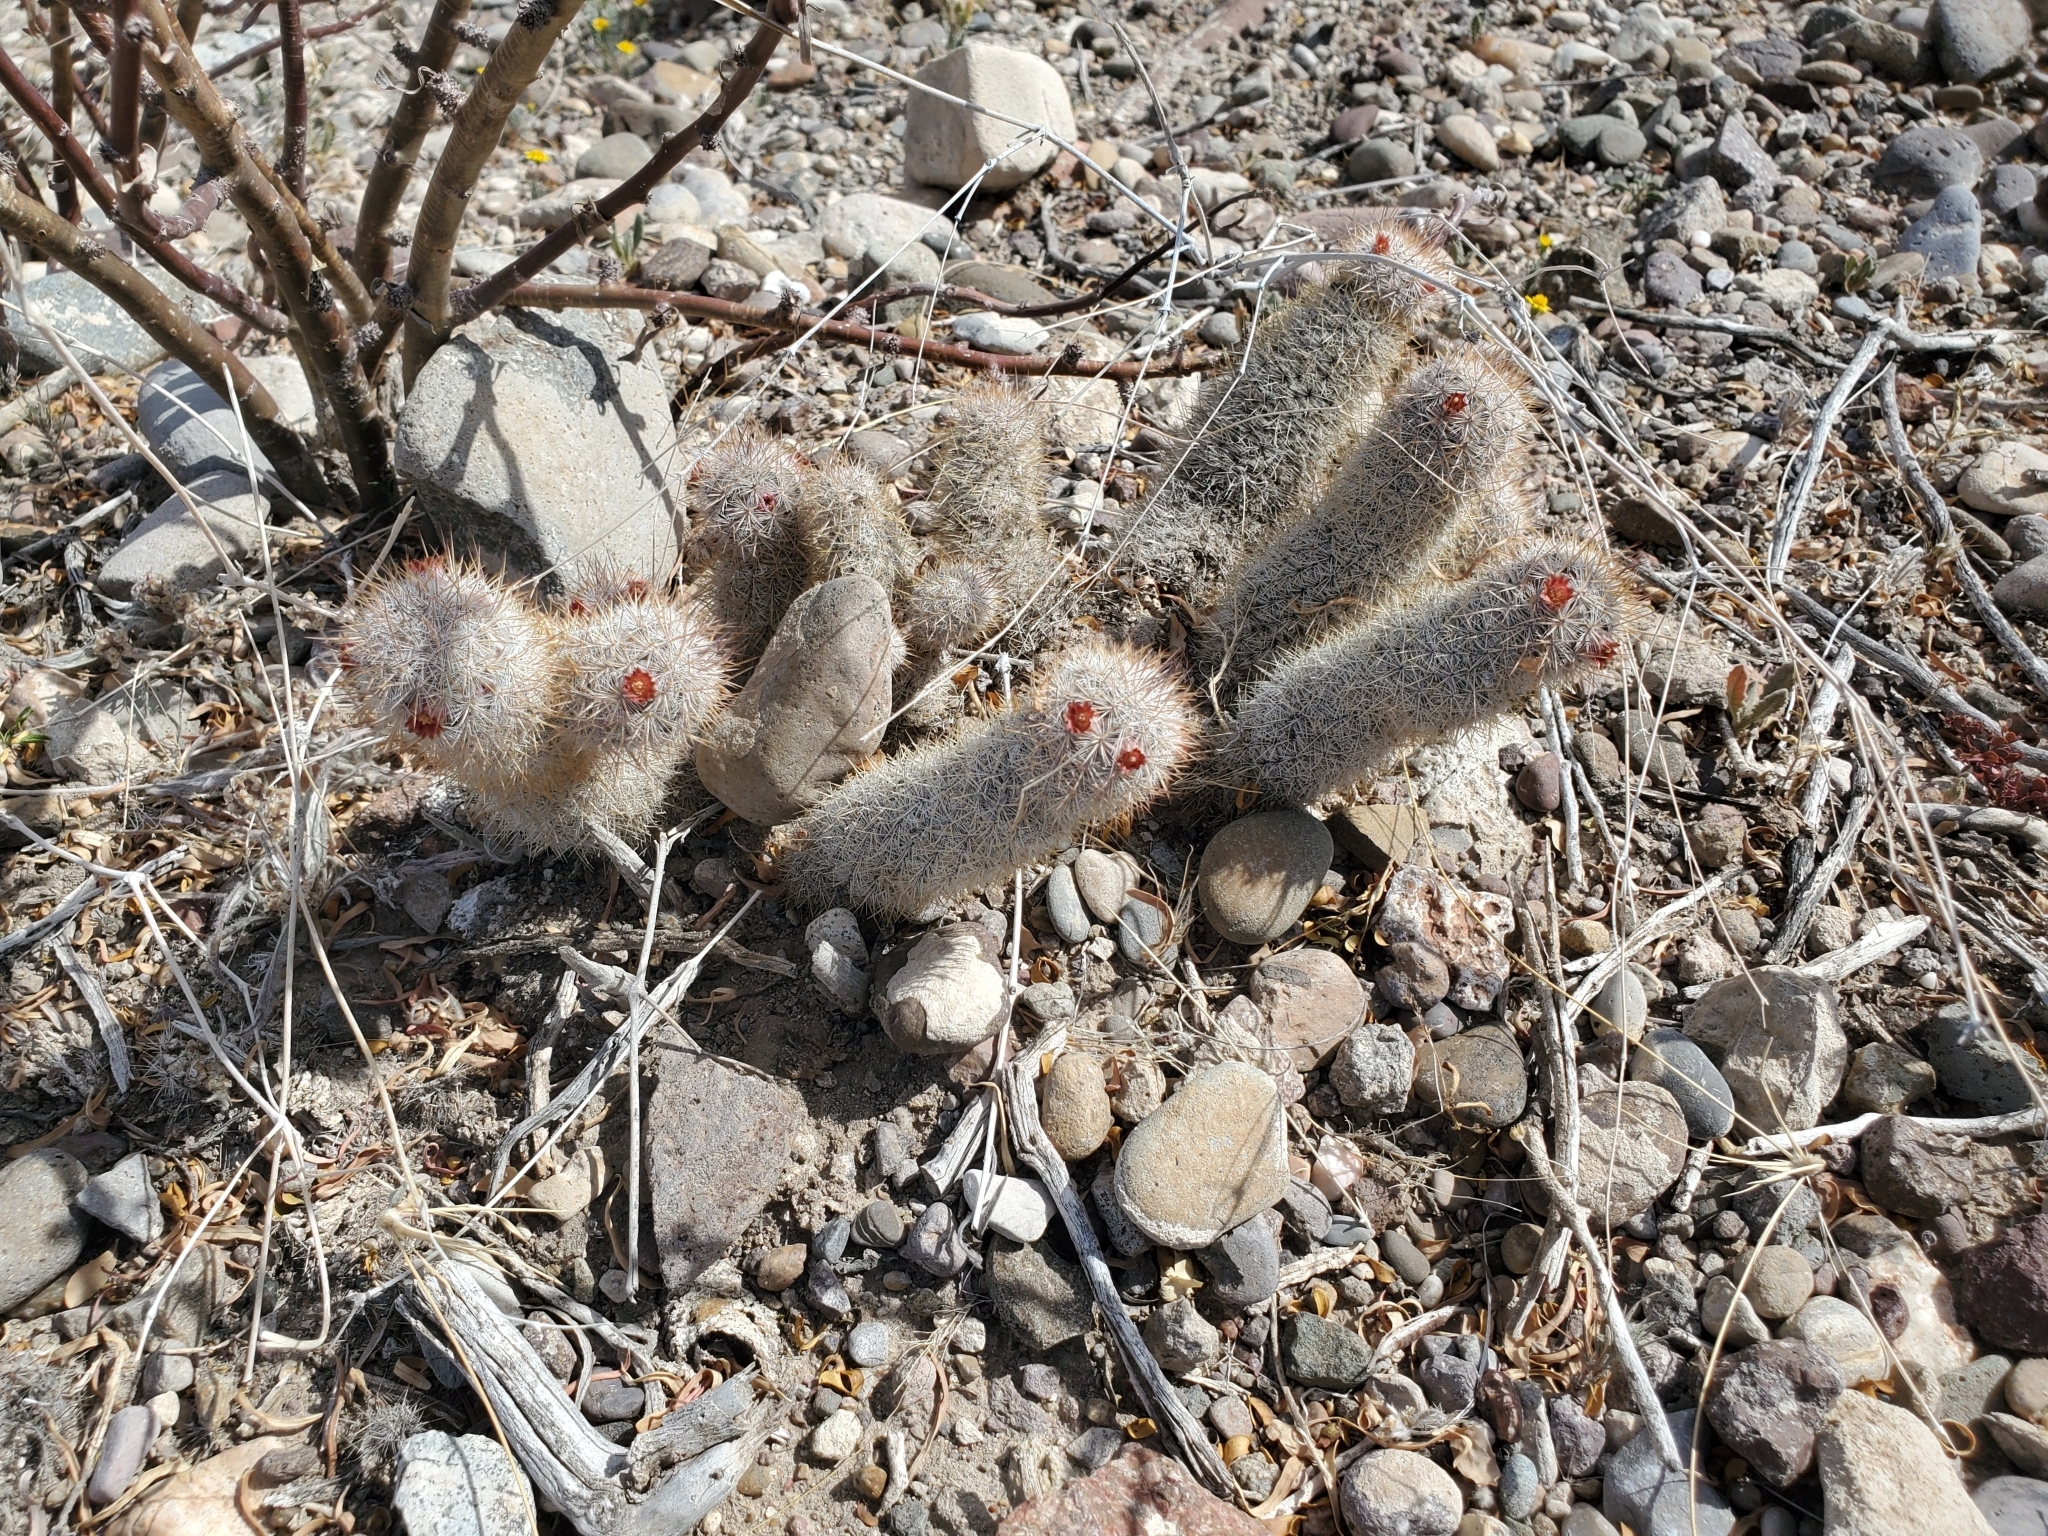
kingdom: Plantae
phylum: Tracheophyta
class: Magnoliopsida
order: Caryophyllales
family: Cactaceae
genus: Mammillaria
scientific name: Mammillaria pottsii
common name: Pott's nipple-cactus
